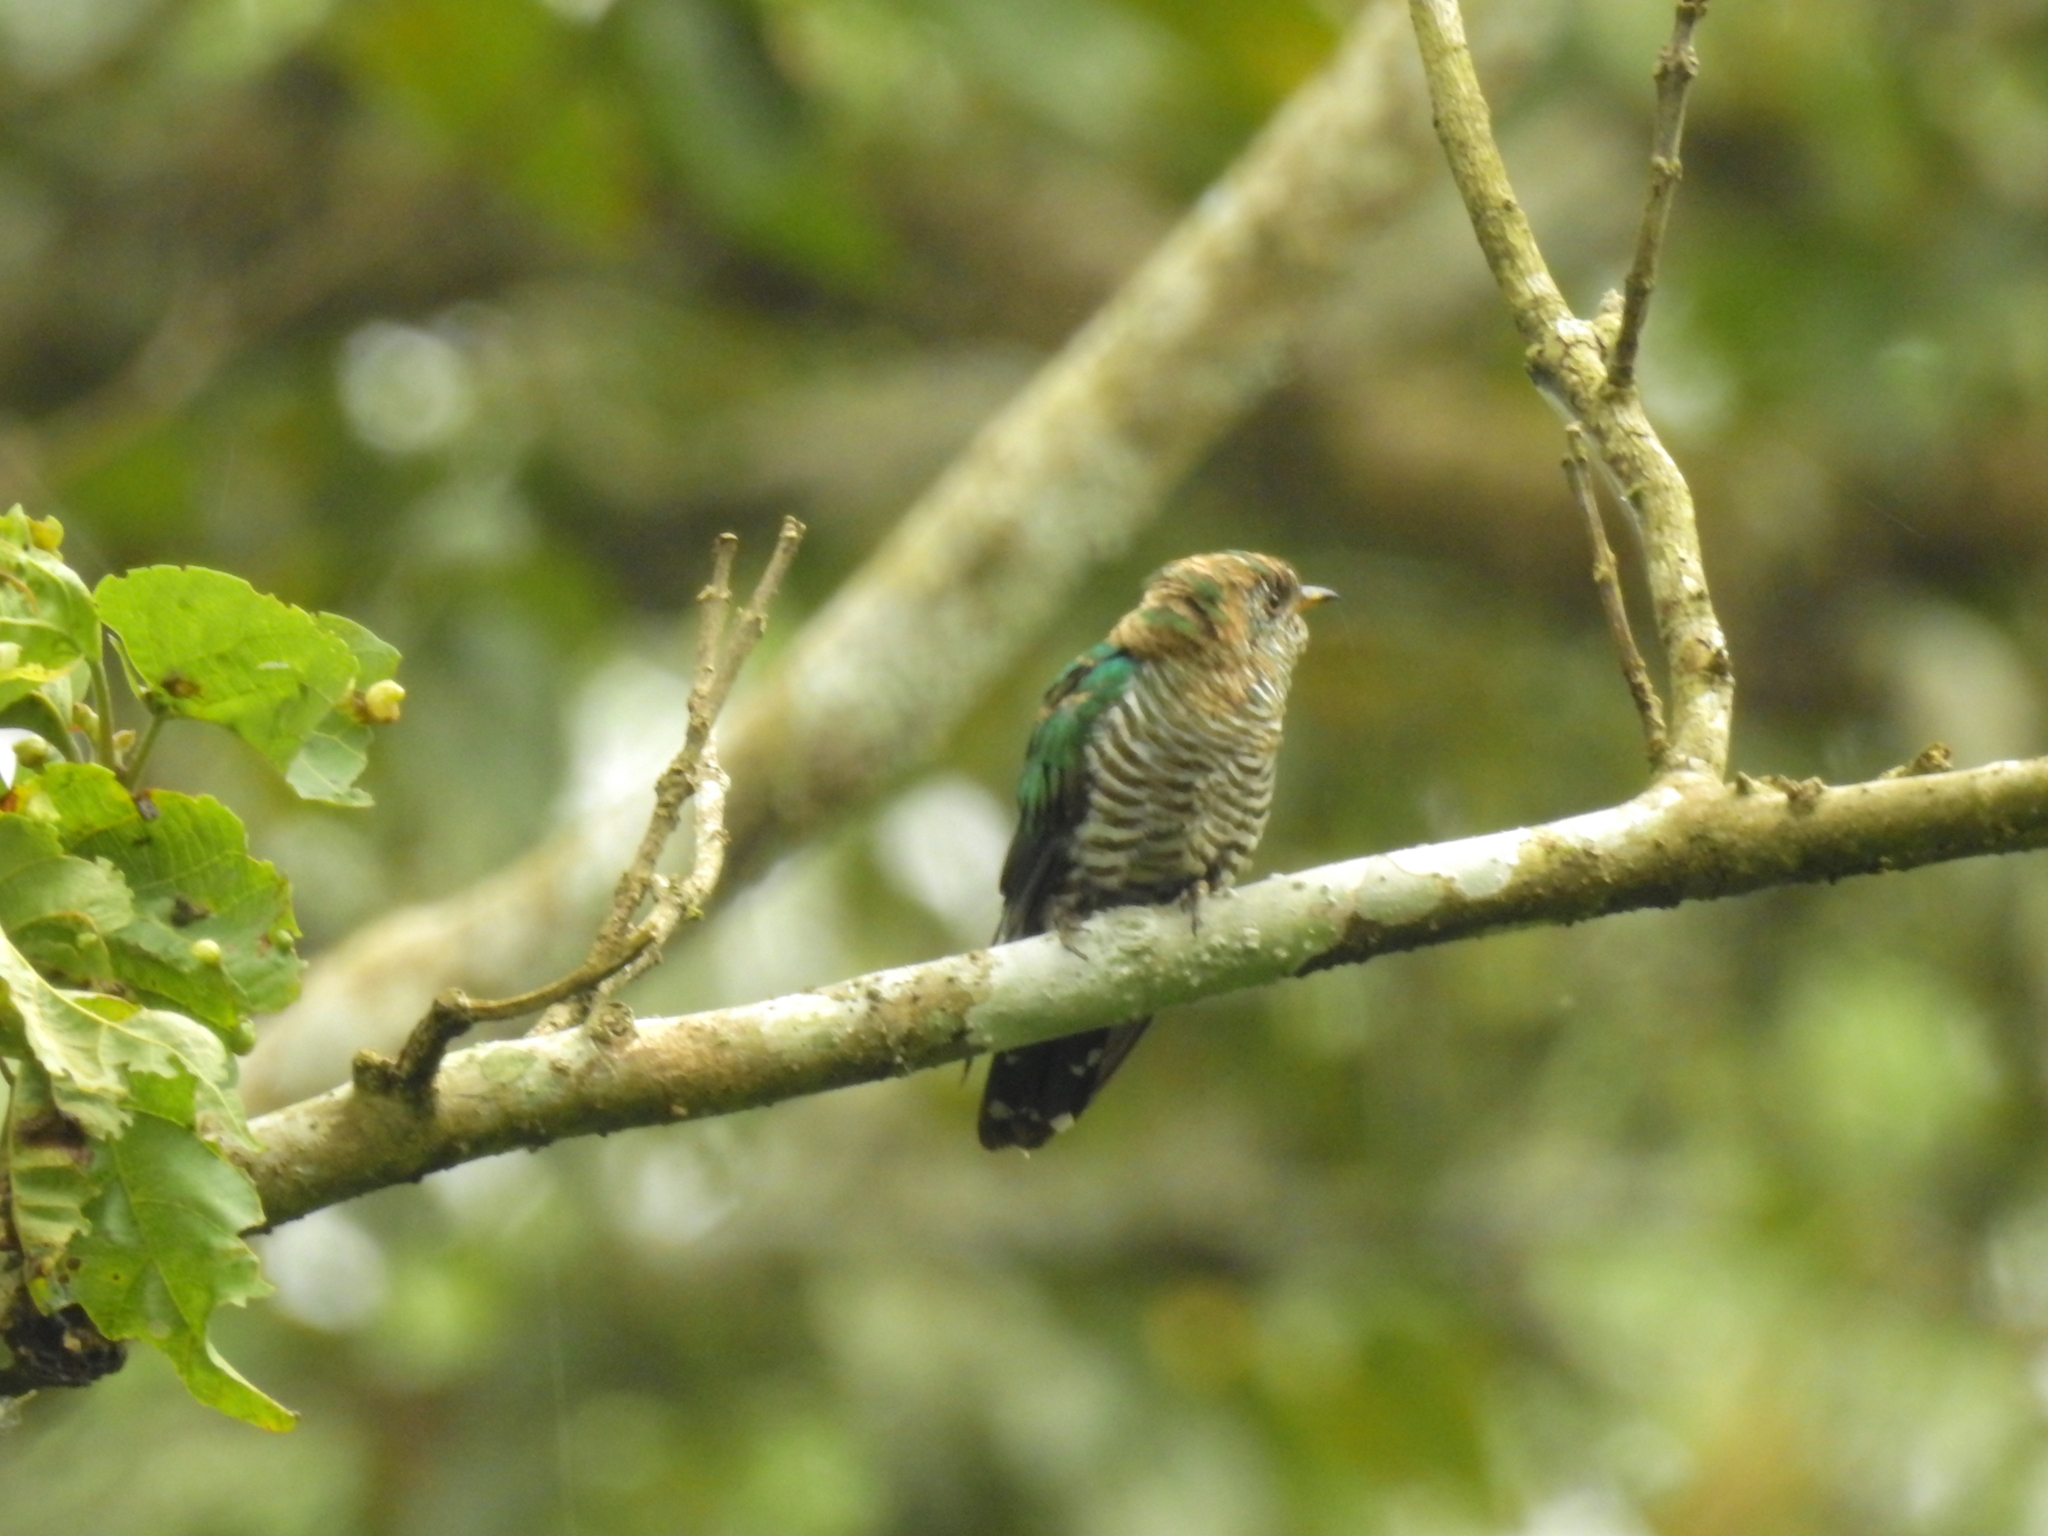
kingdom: Animalia
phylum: Chordata
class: Aves
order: Cuculiformes
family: Cuculidae
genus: Chrysococcyx
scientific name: Chrysococcyx maculatus
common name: Asian emerald cuckoo
